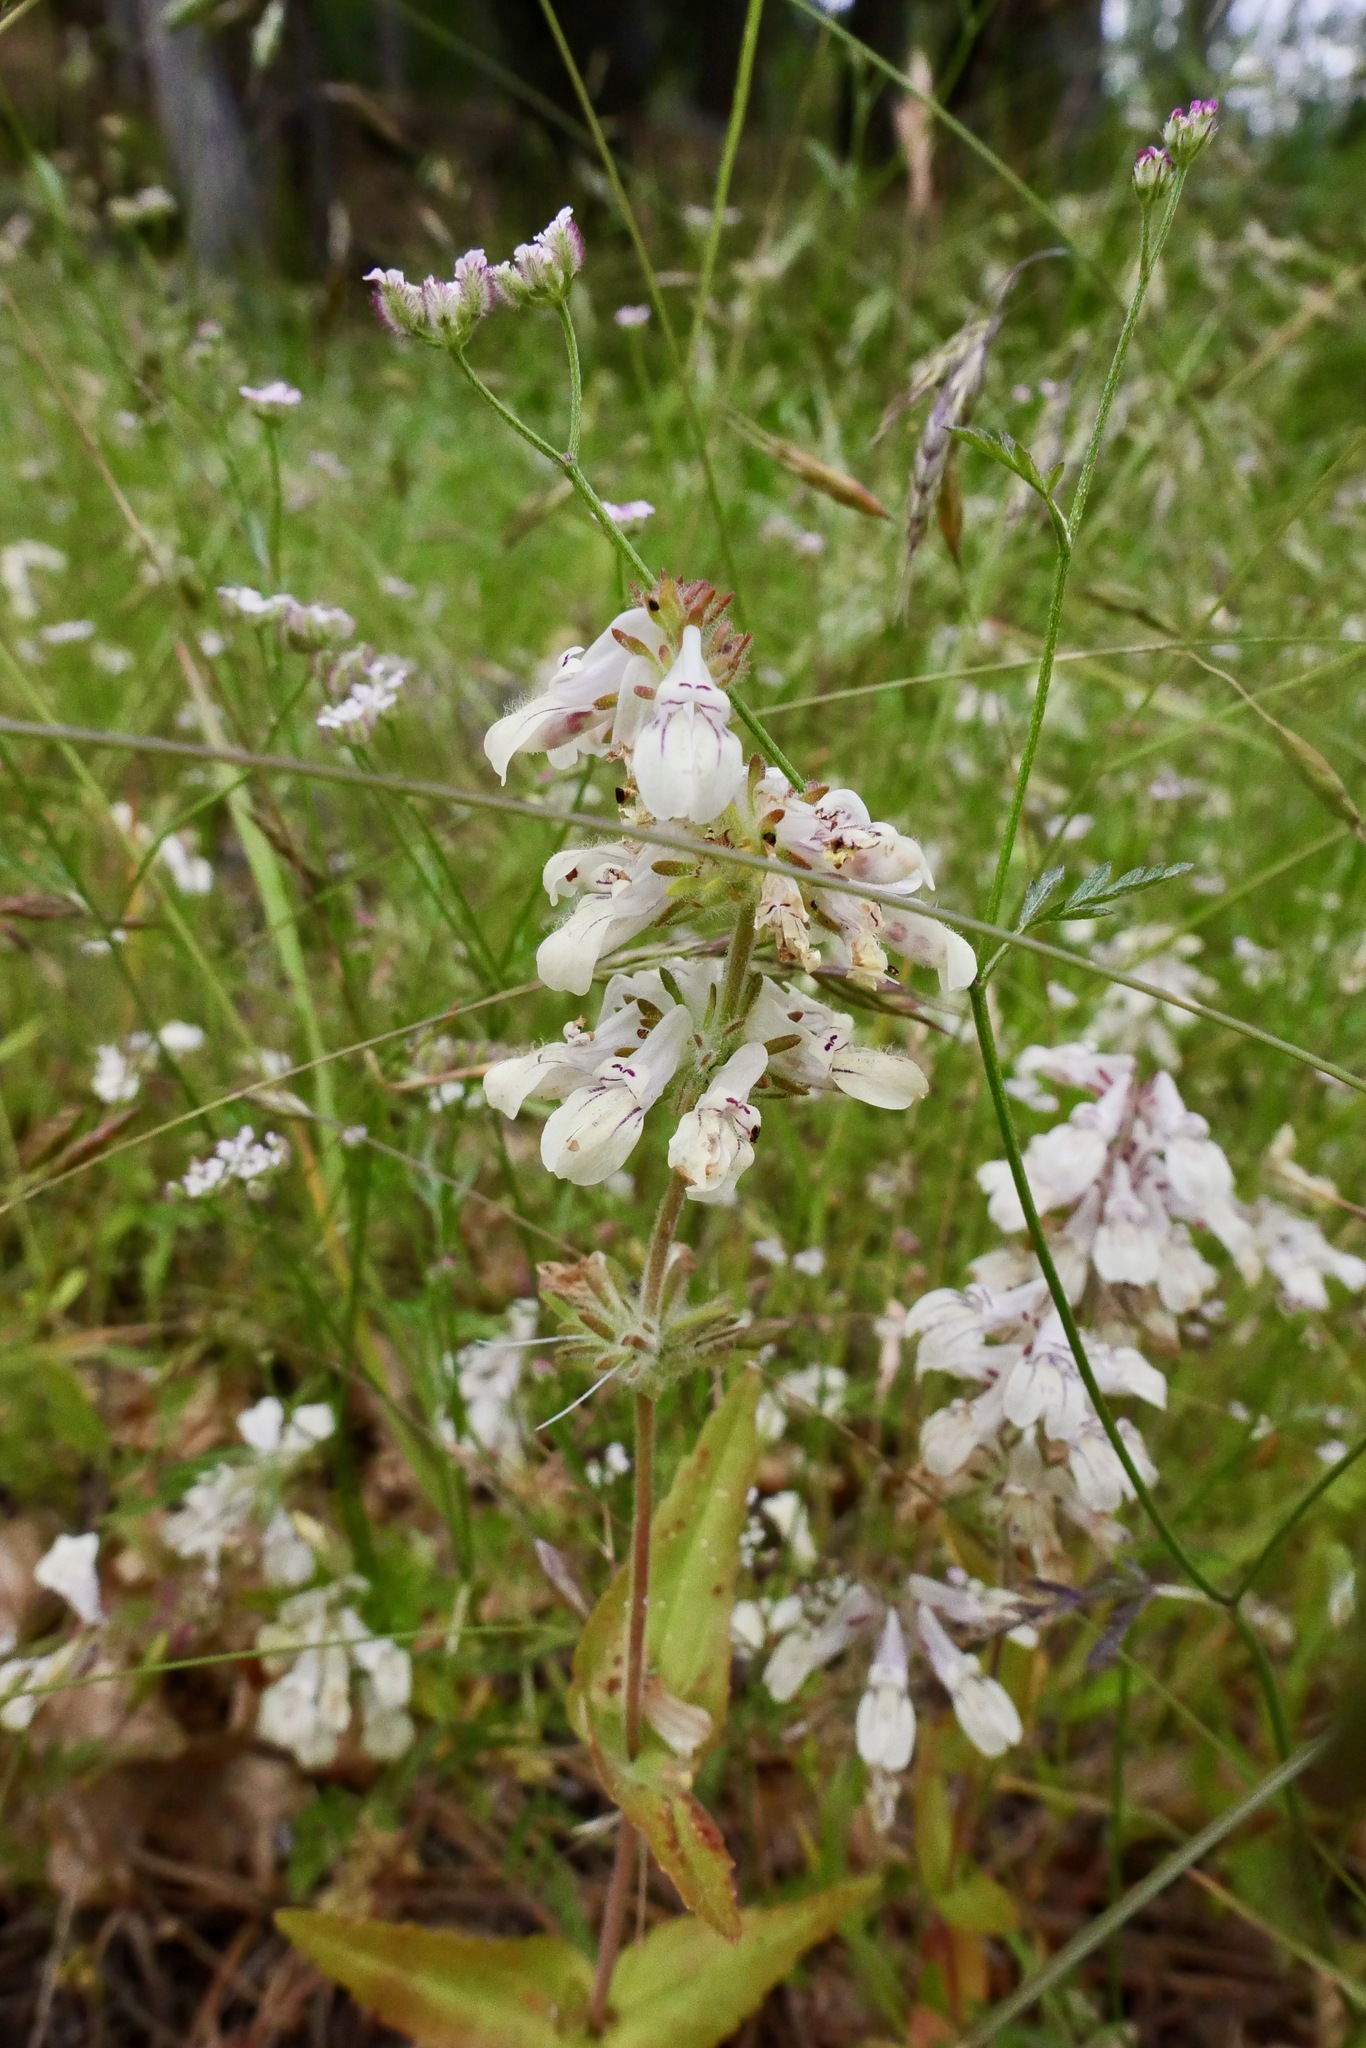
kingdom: Plantae
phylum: Tracheophyta
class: Magnoliopsida
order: Lamiales
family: Plantaginaceae
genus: Collinsia
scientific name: Collinsia tinctoria
